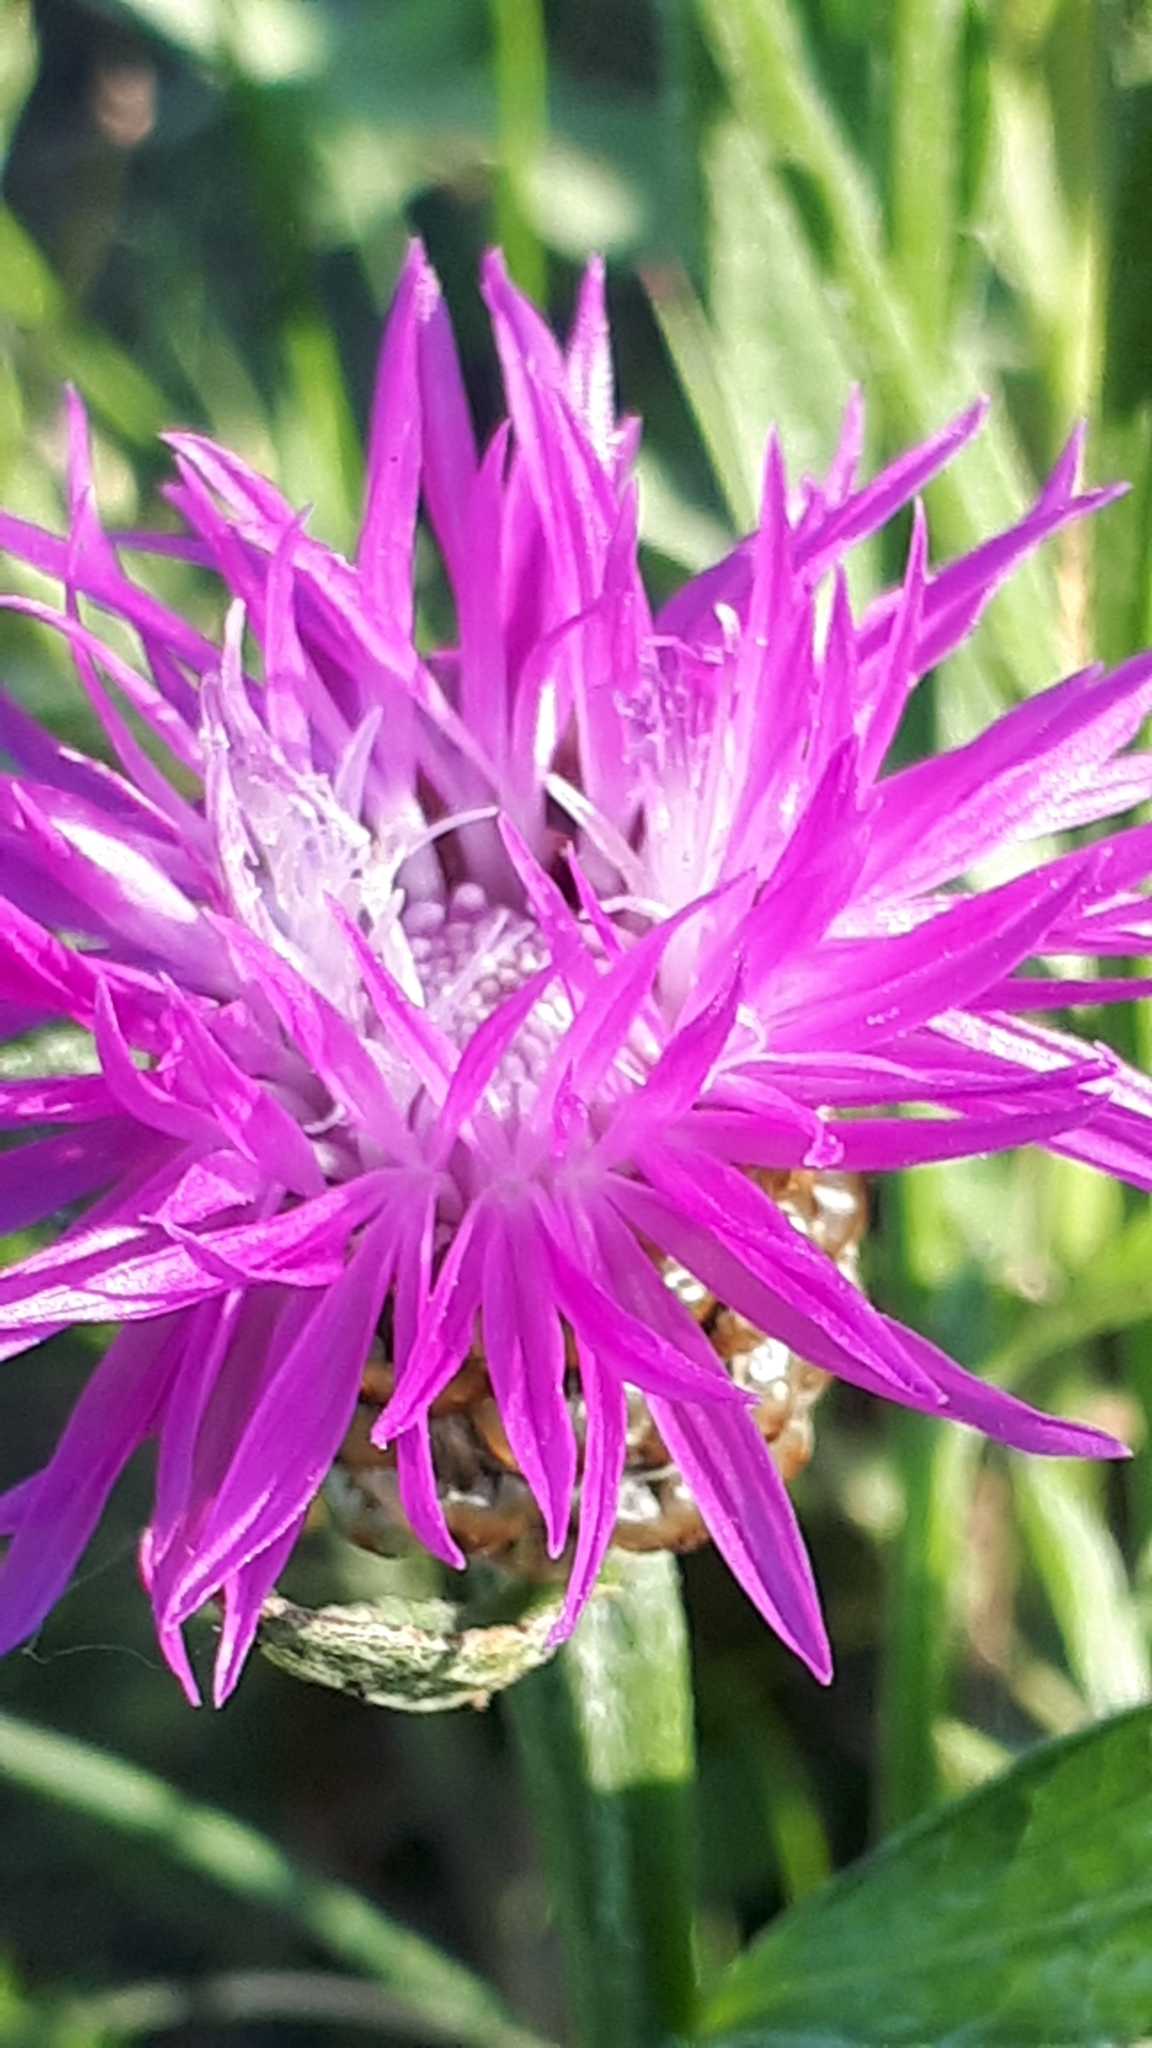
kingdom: Plantae
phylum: Tracheophyta
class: Magnoliopsida
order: Asterales
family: Asteraceae
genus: Centaurea
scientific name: Centaurea jacea
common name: Brown knapweed
